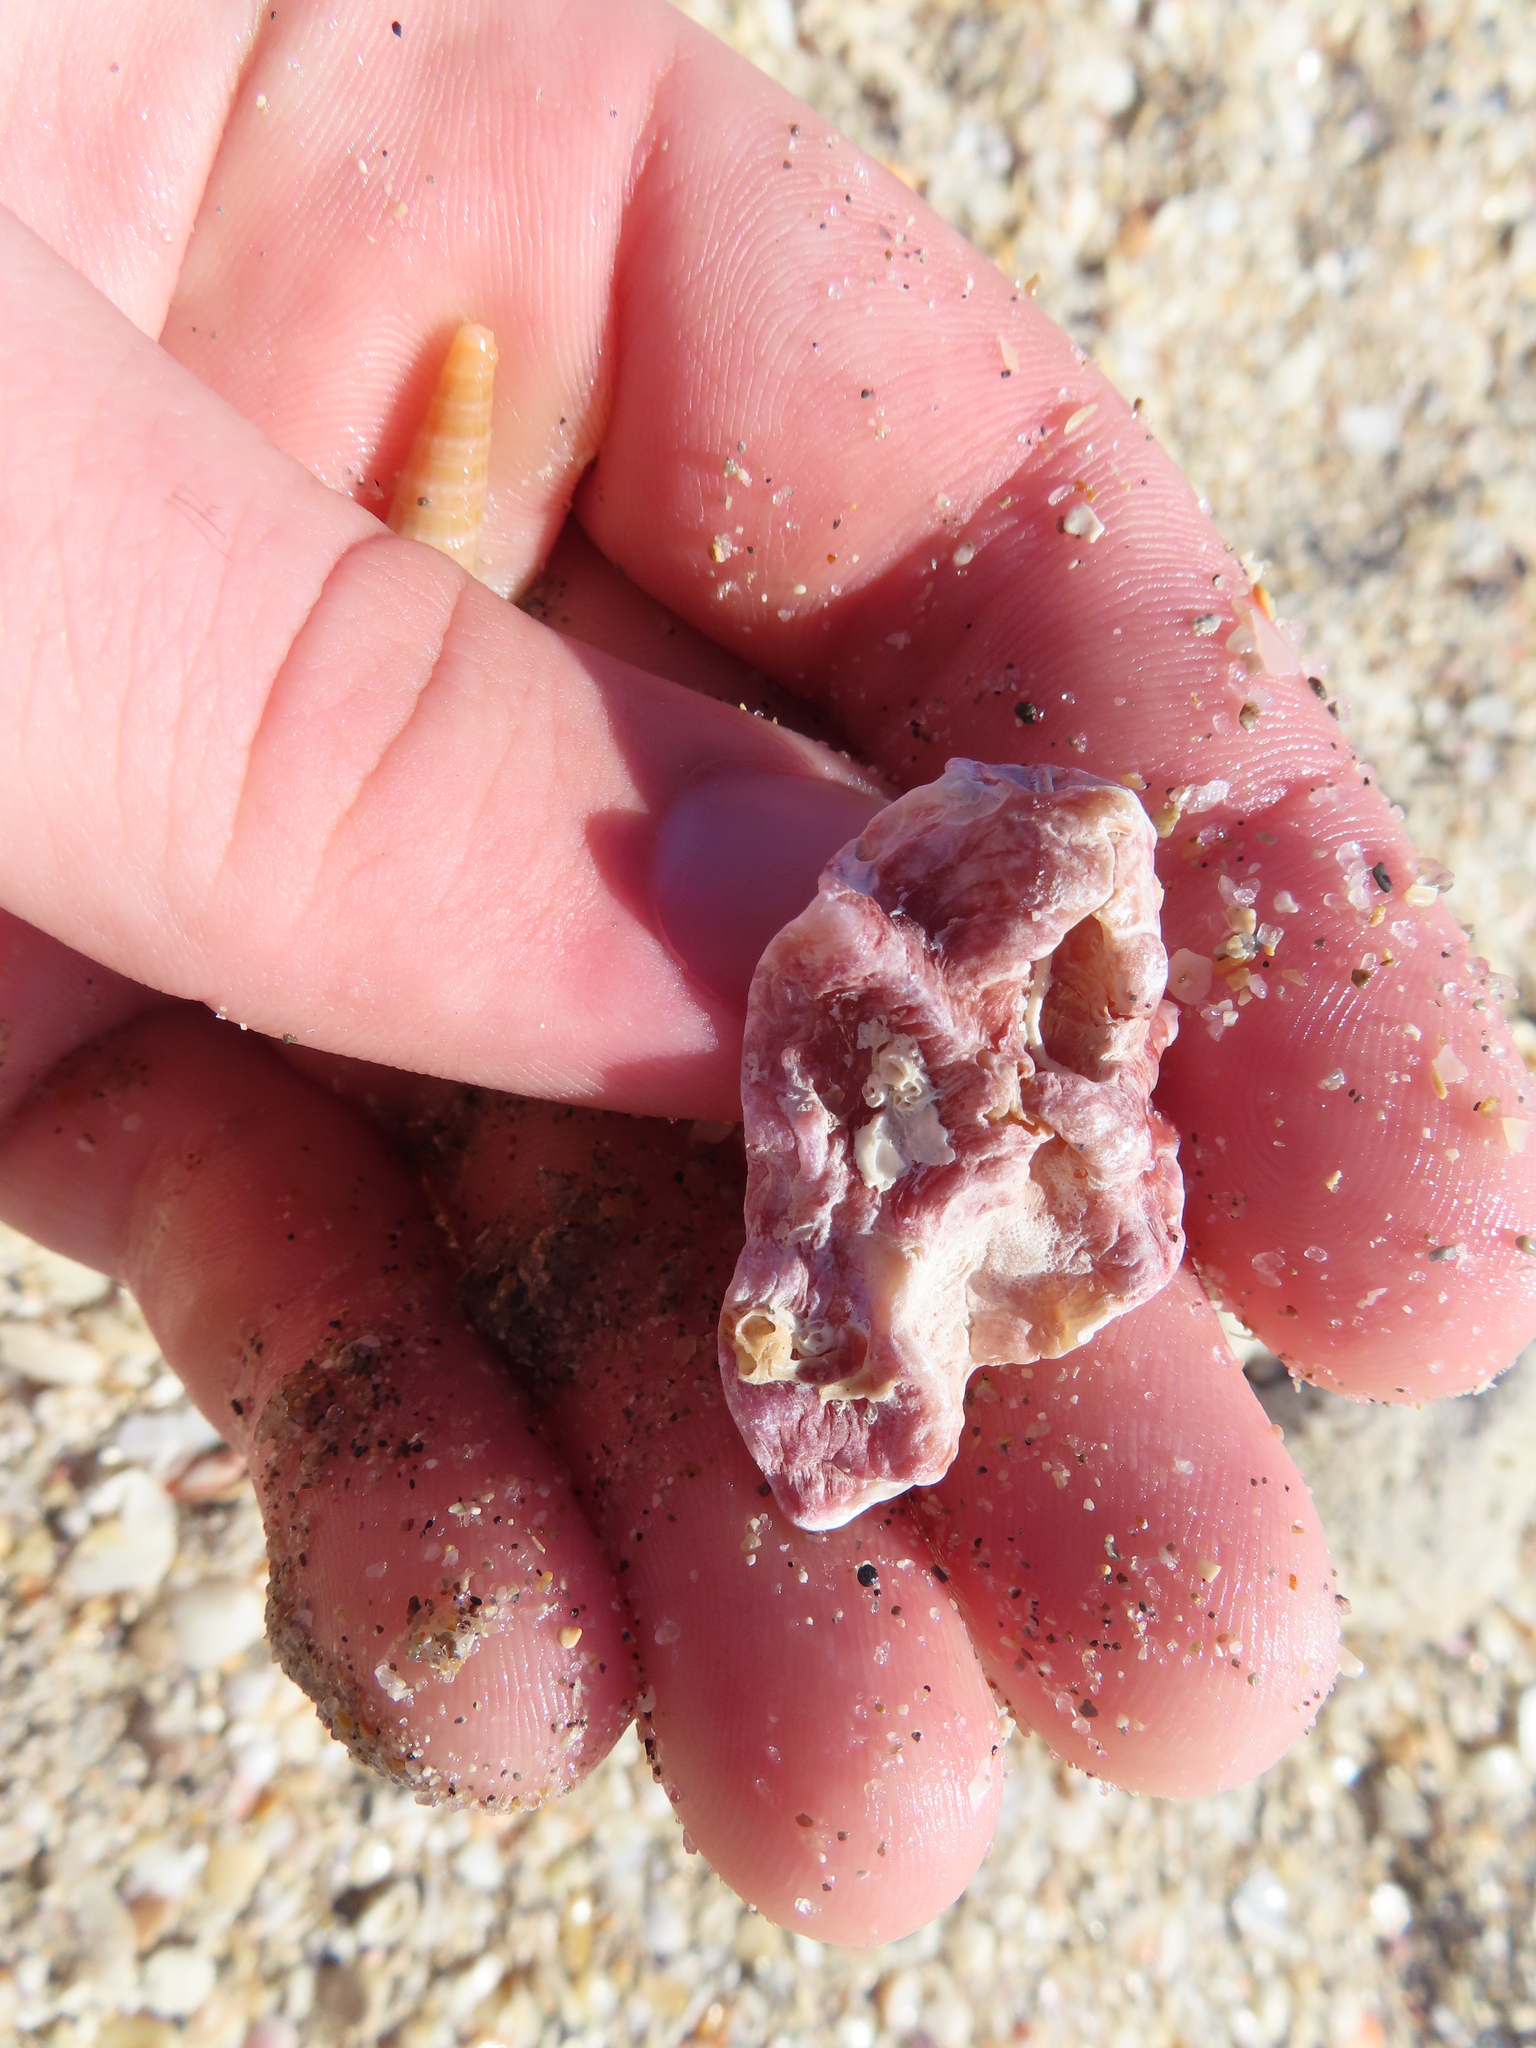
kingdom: Animalia
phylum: Mollusca
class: Bivalvia
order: Ostreida
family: Ostreidae
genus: Dendostrea
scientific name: Dendostrea frons
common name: Frond oyster
